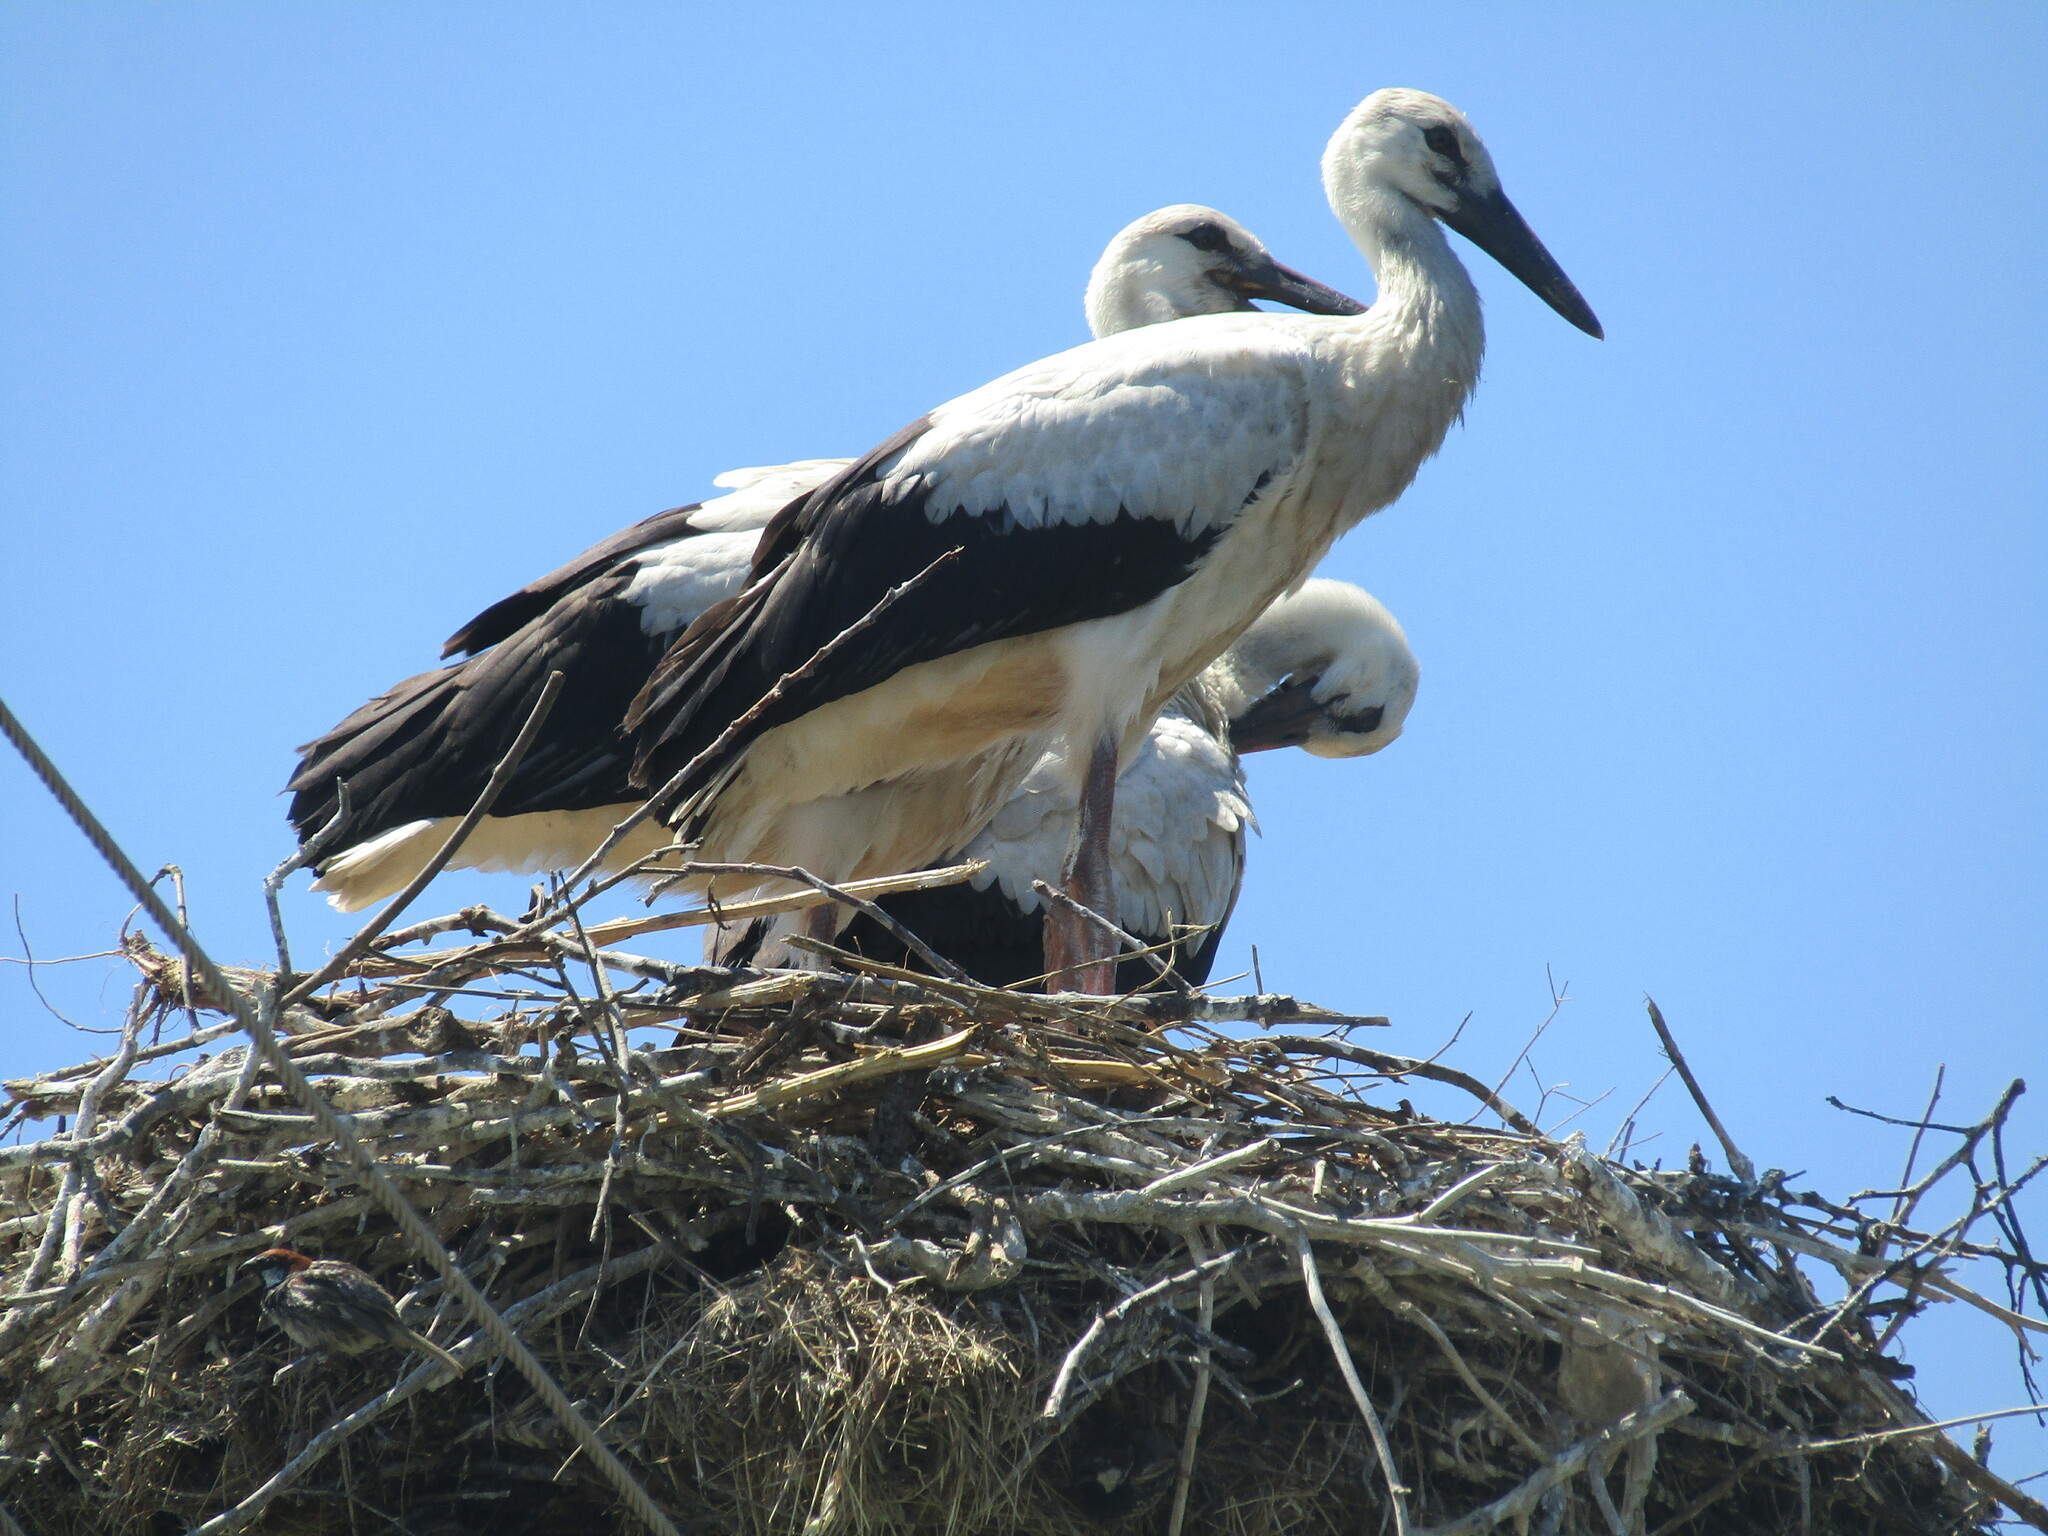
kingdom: Animalia
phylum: Chordata
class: Aves
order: Ciconiiformes
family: Ciconiidae
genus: Ciconia
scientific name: Ciconia ciconia
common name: White stork
